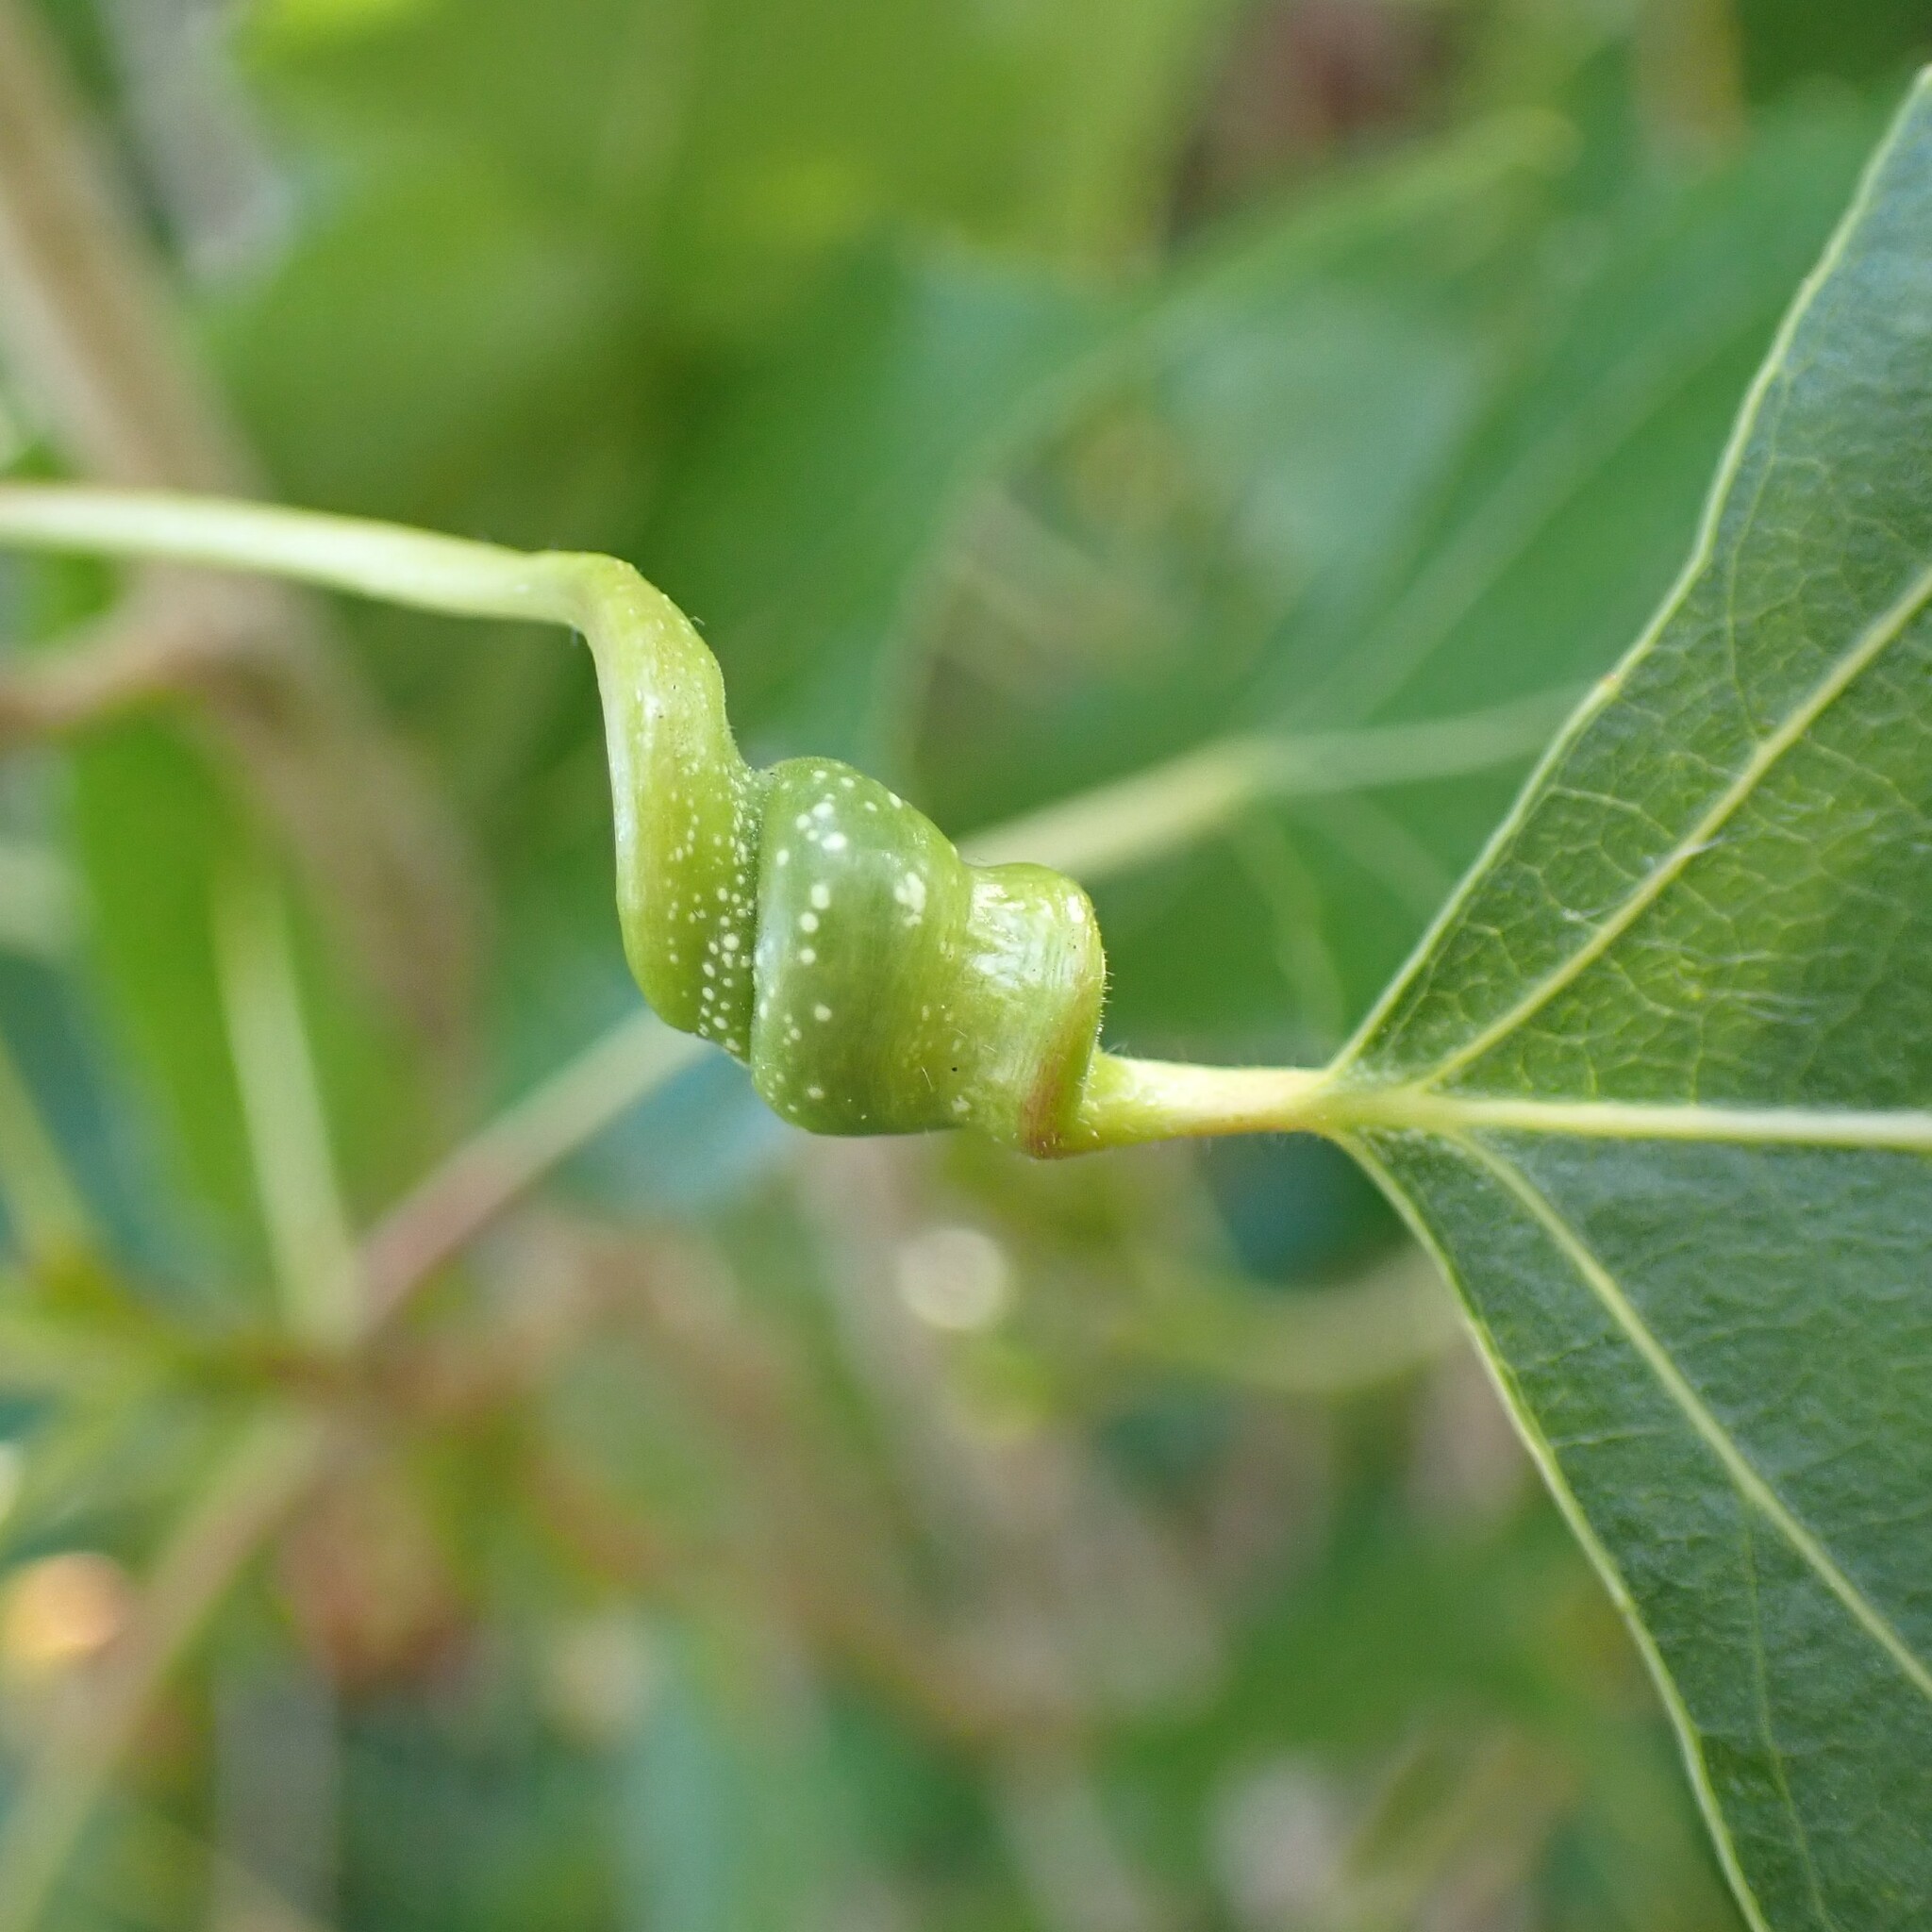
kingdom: Animalia
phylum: Arthropoda
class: Insecta
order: Hemiptera
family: Aphididae
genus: Pemphigus
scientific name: Pemphigus spyrothecae
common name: Aphid
